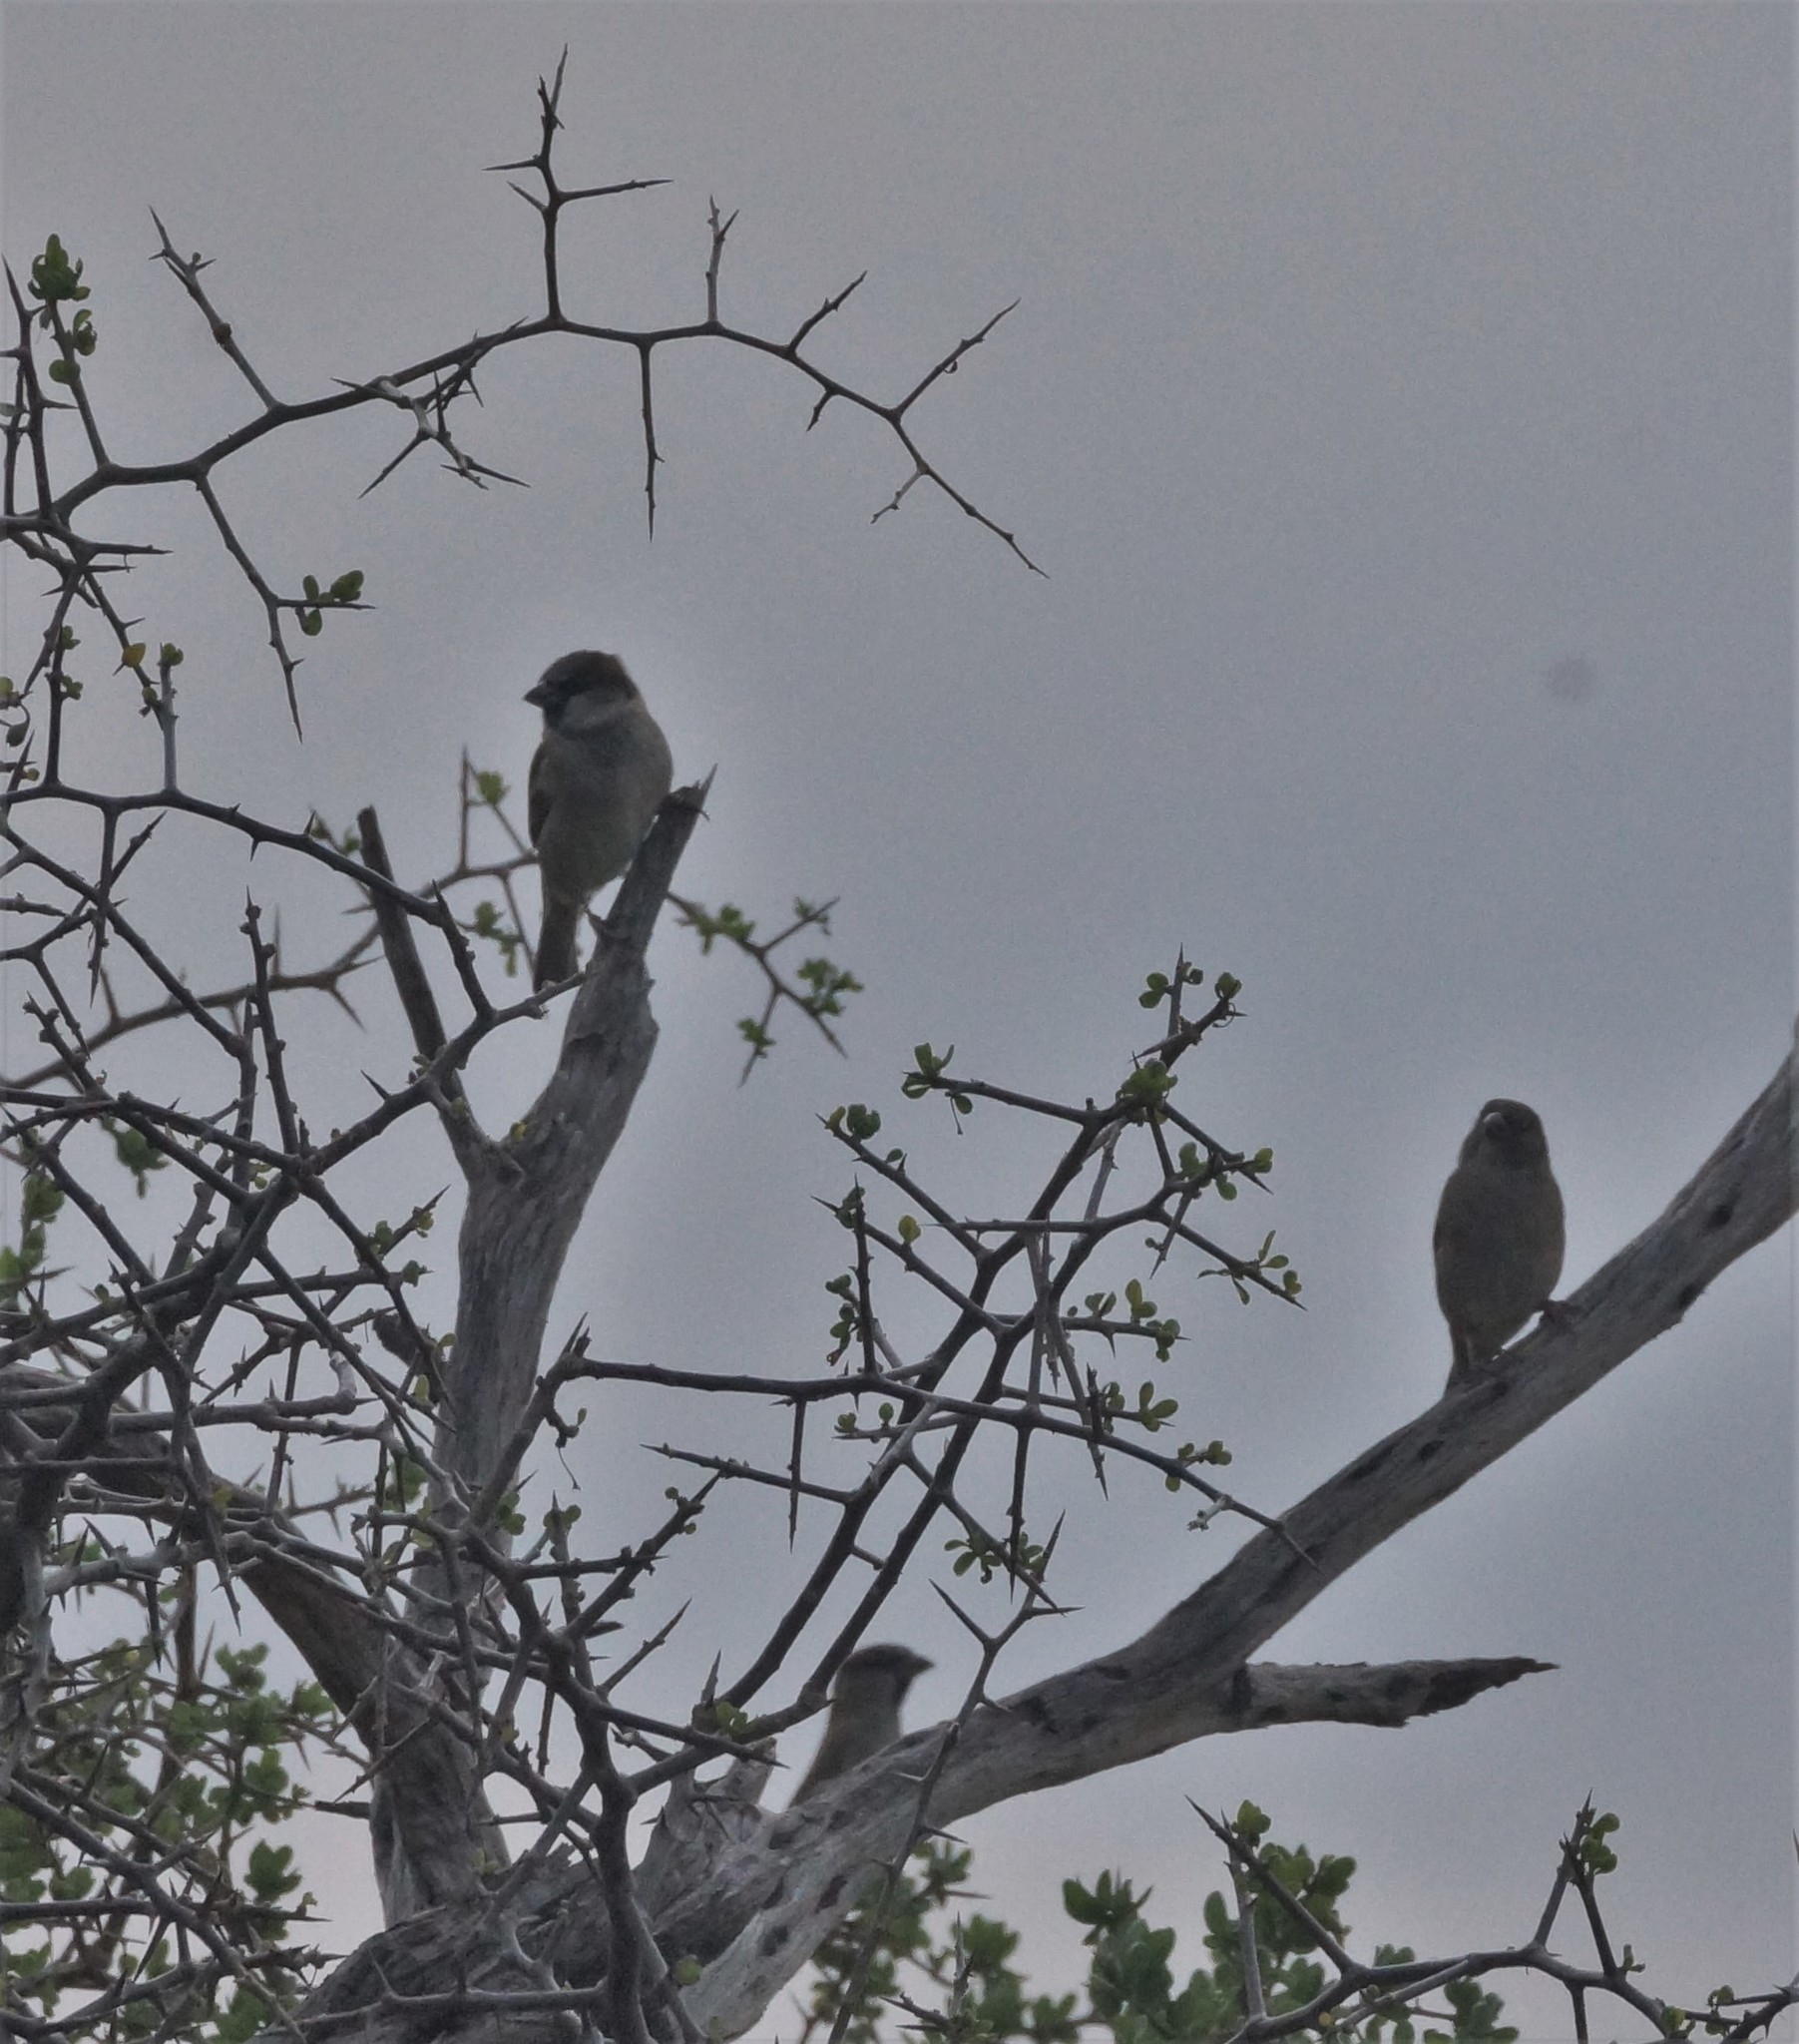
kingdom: Animalia
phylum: Chordata
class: Aves
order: Passeriformes
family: Passeridae
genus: Passer
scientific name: Passer domesticus
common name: House sparrow
